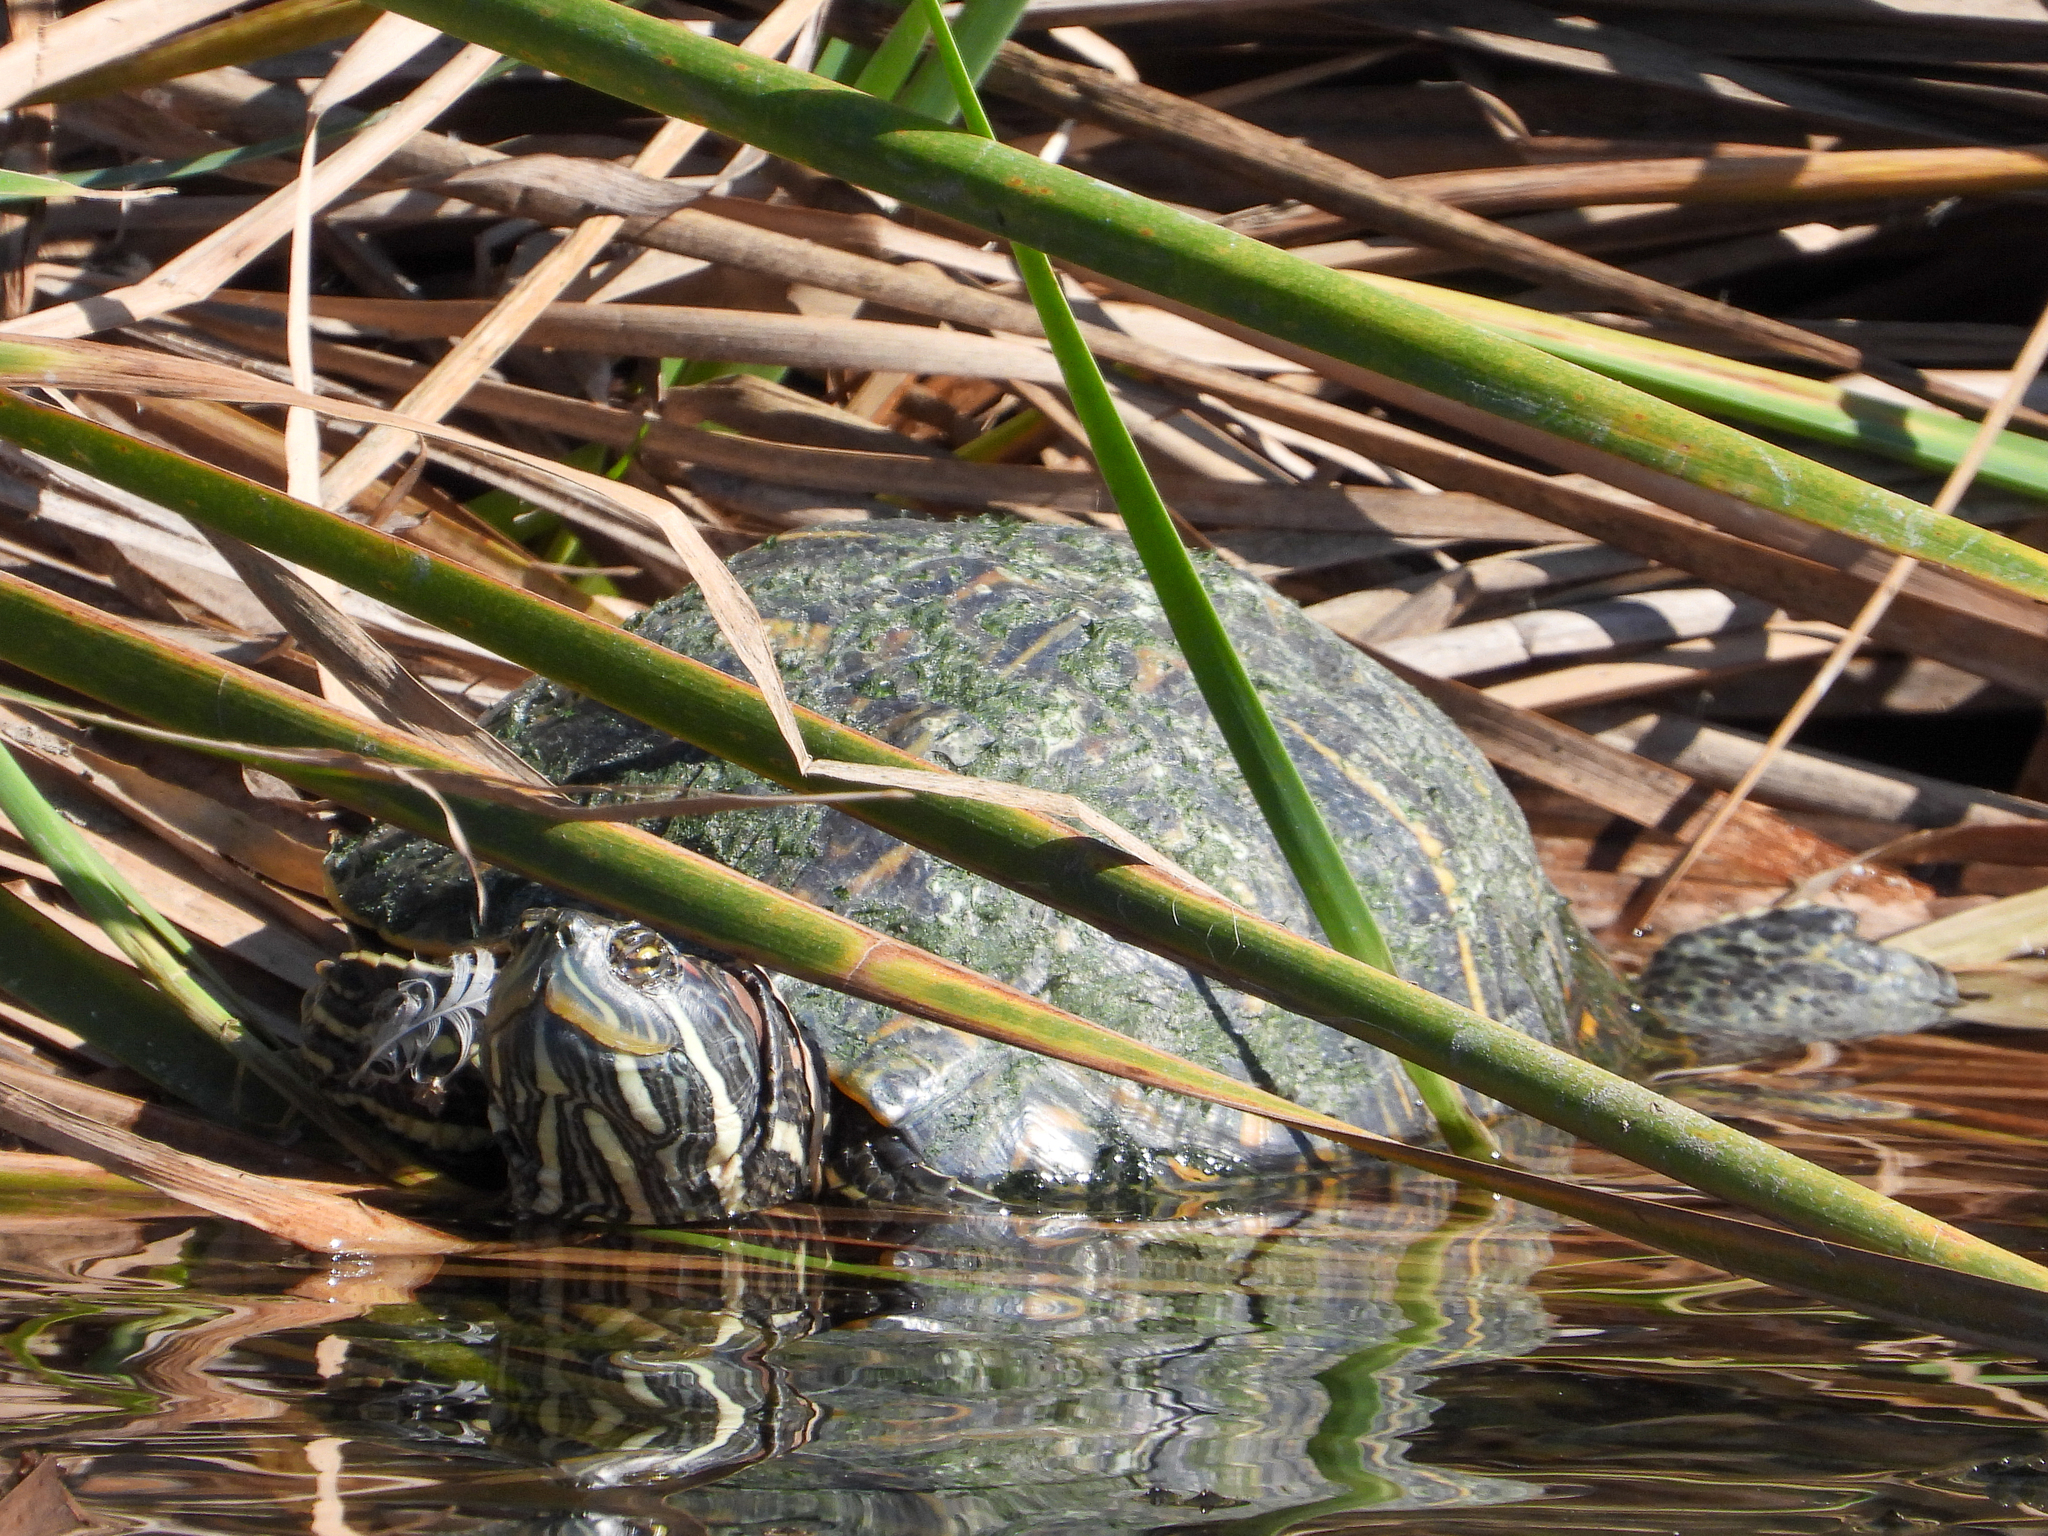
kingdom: Animalia
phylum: Chordata
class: Testudines
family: Emydidae
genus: Trachemys
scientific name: Trachemys scripta
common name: Slider
